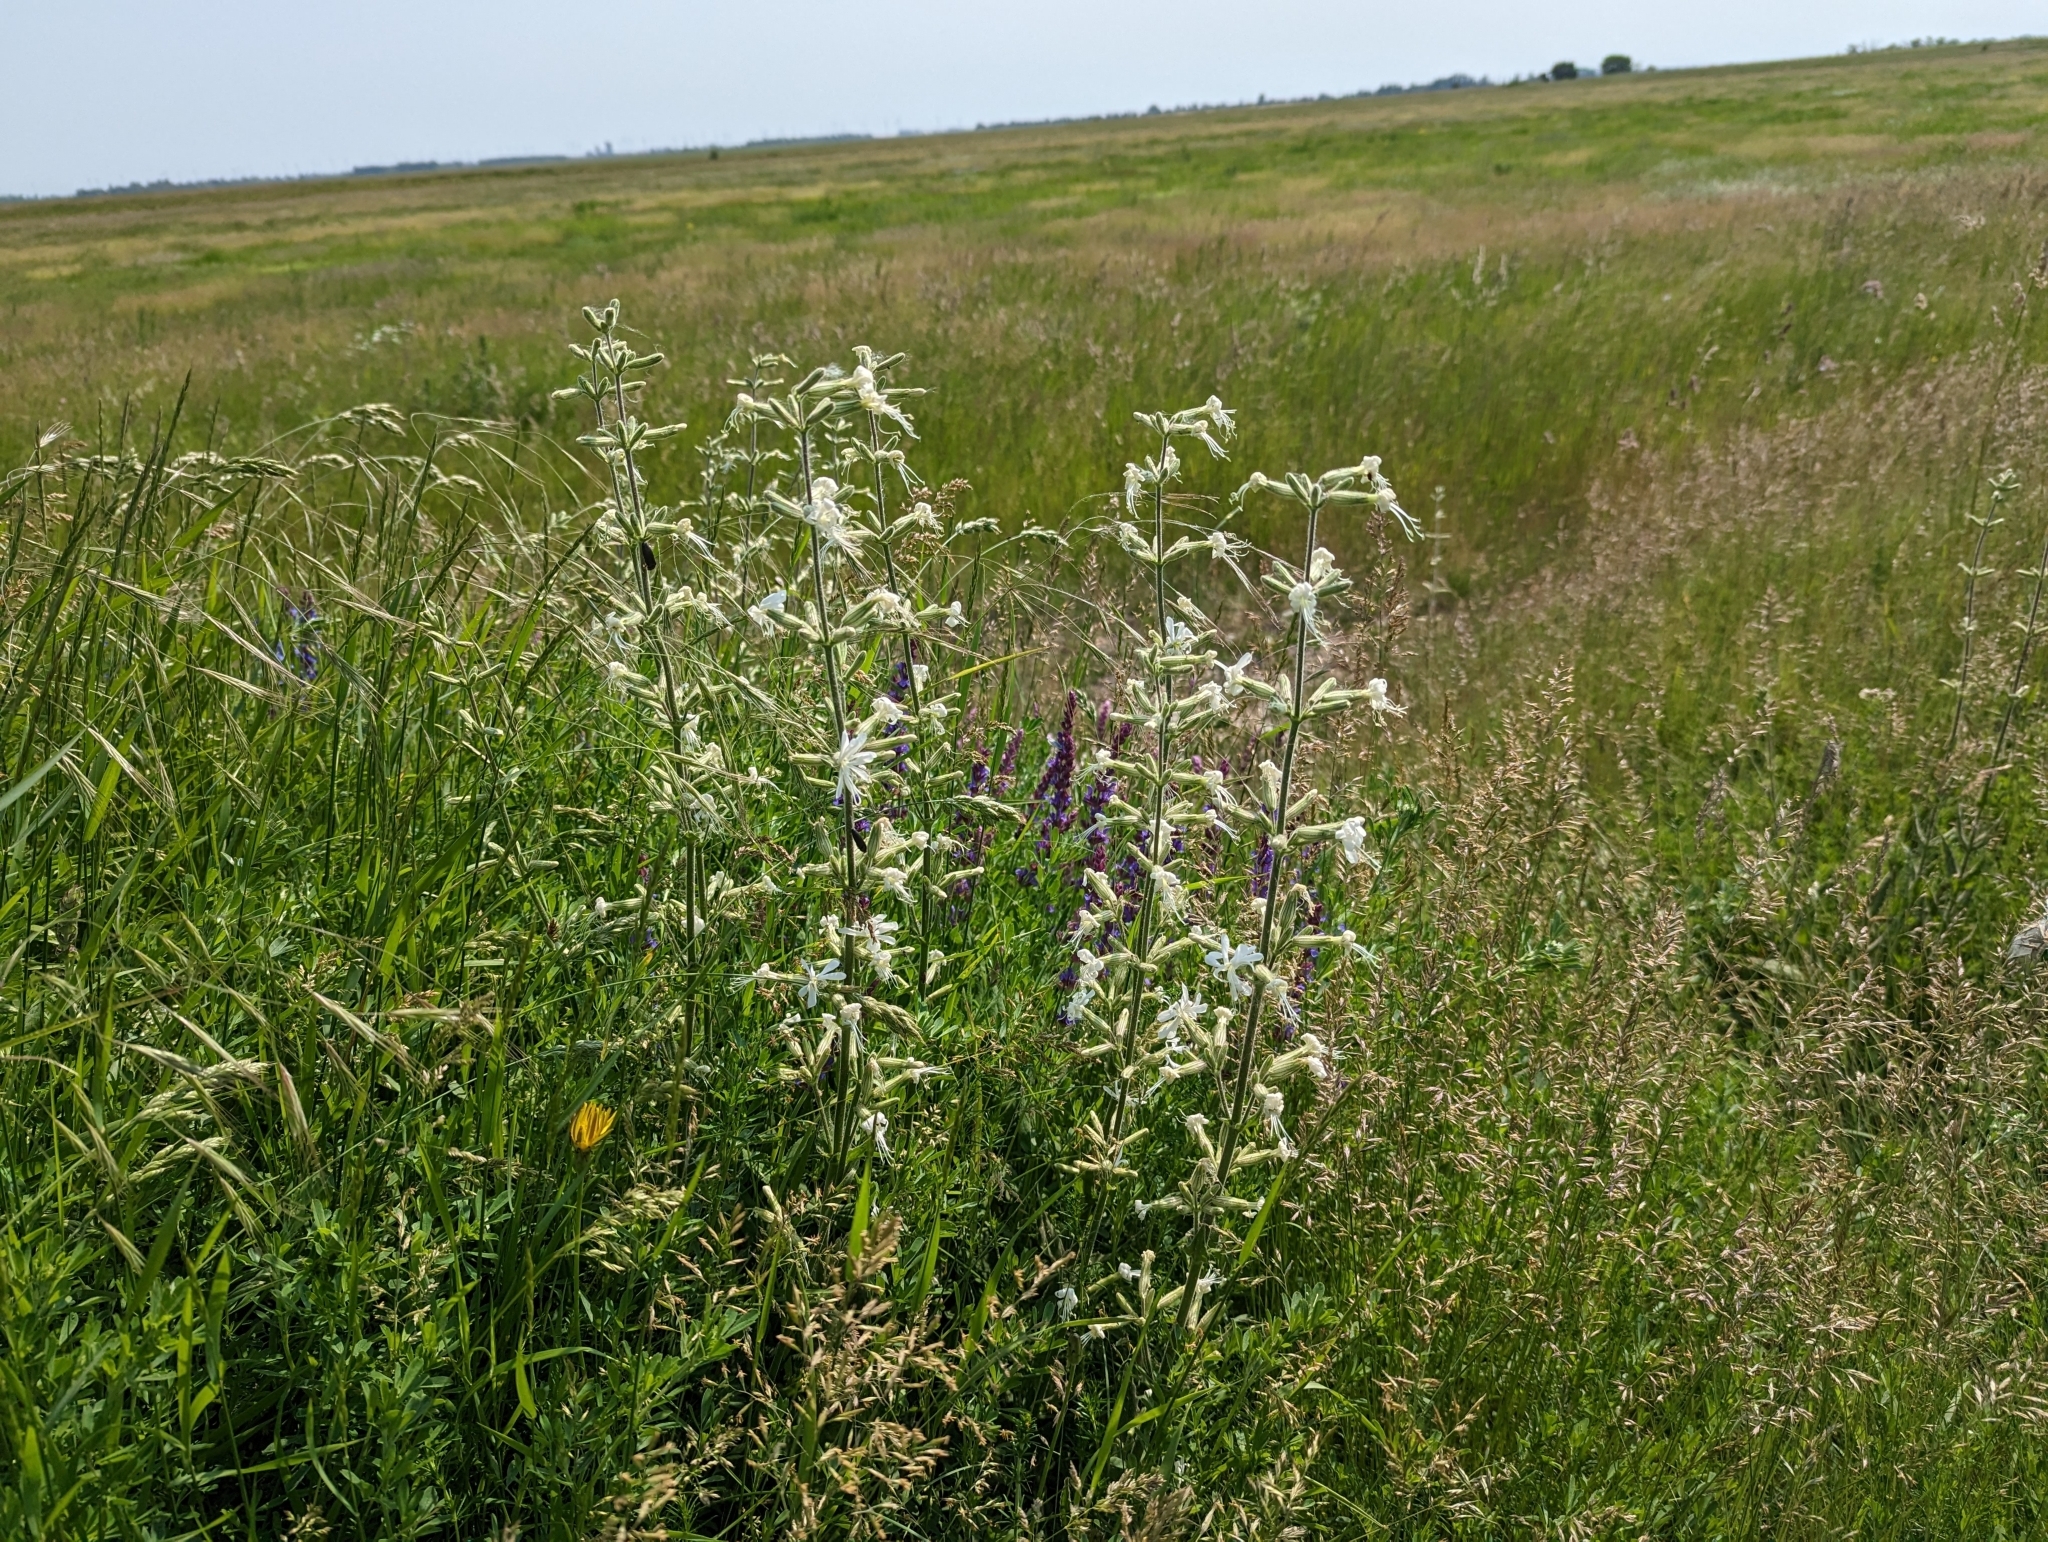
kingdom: Plantae
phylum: Tracheophyta
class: Magnoliopsida
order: Caryophyllales
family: Caryophyllaceae
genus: Silene
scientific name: Silene viscosa
